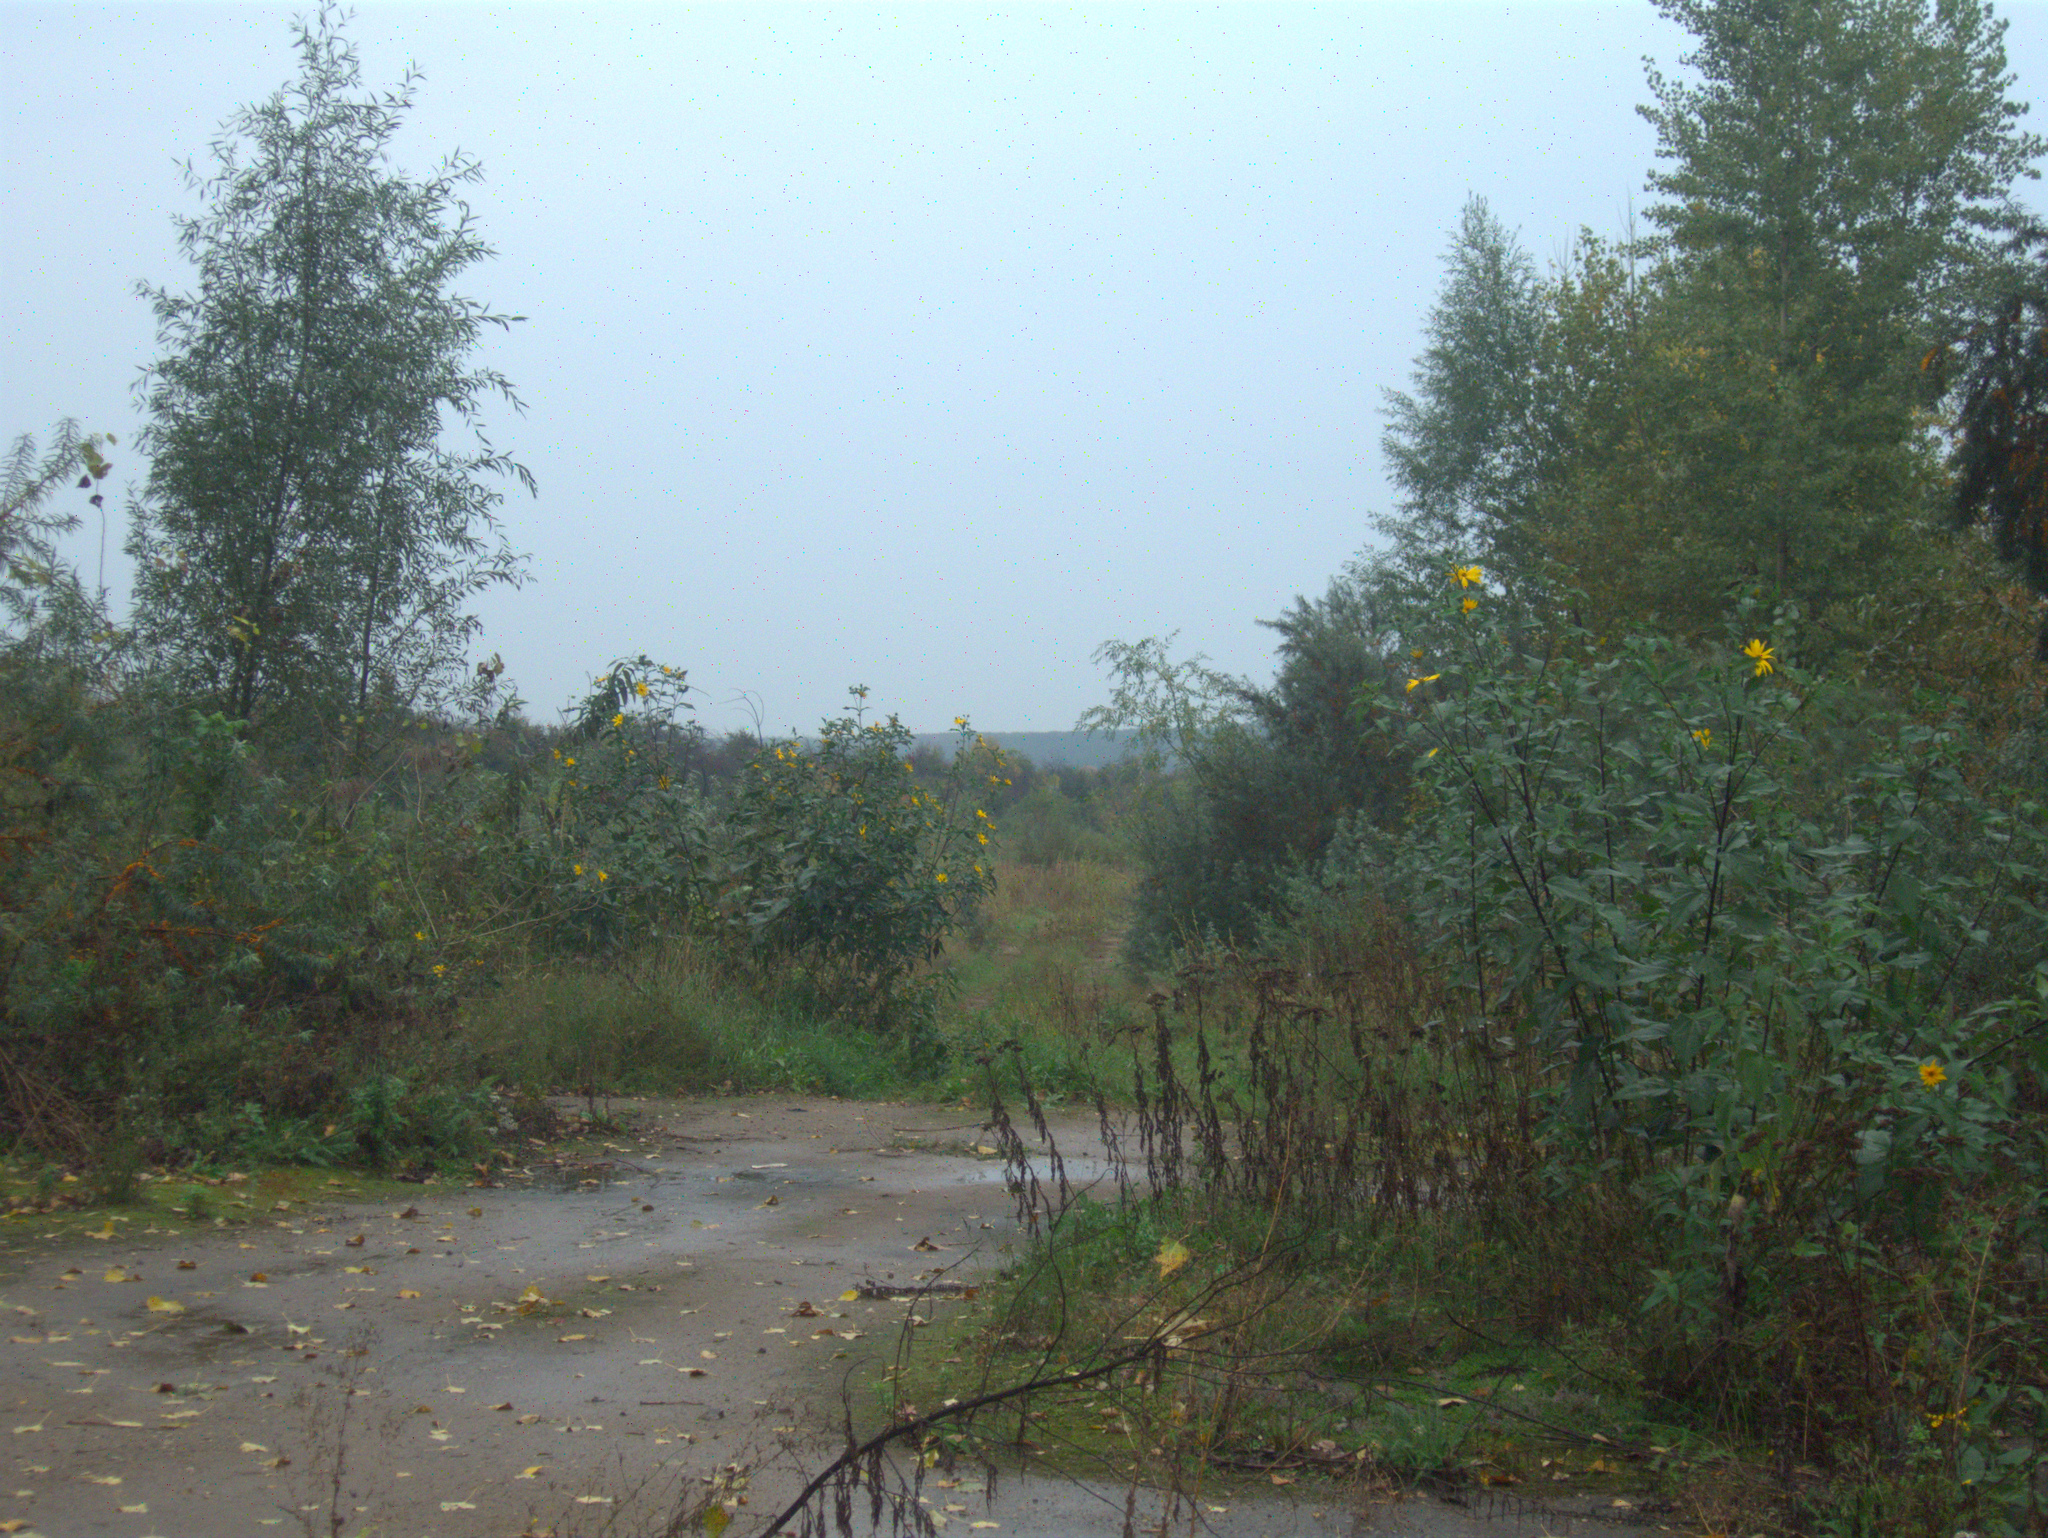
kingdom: Plantae
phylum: Tracheophyta
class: Magnoliopsida
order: Asterales
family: Asteraceae
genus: Helianthus
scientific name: Helianthus tuberosus
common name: Jerusalem artichoke
